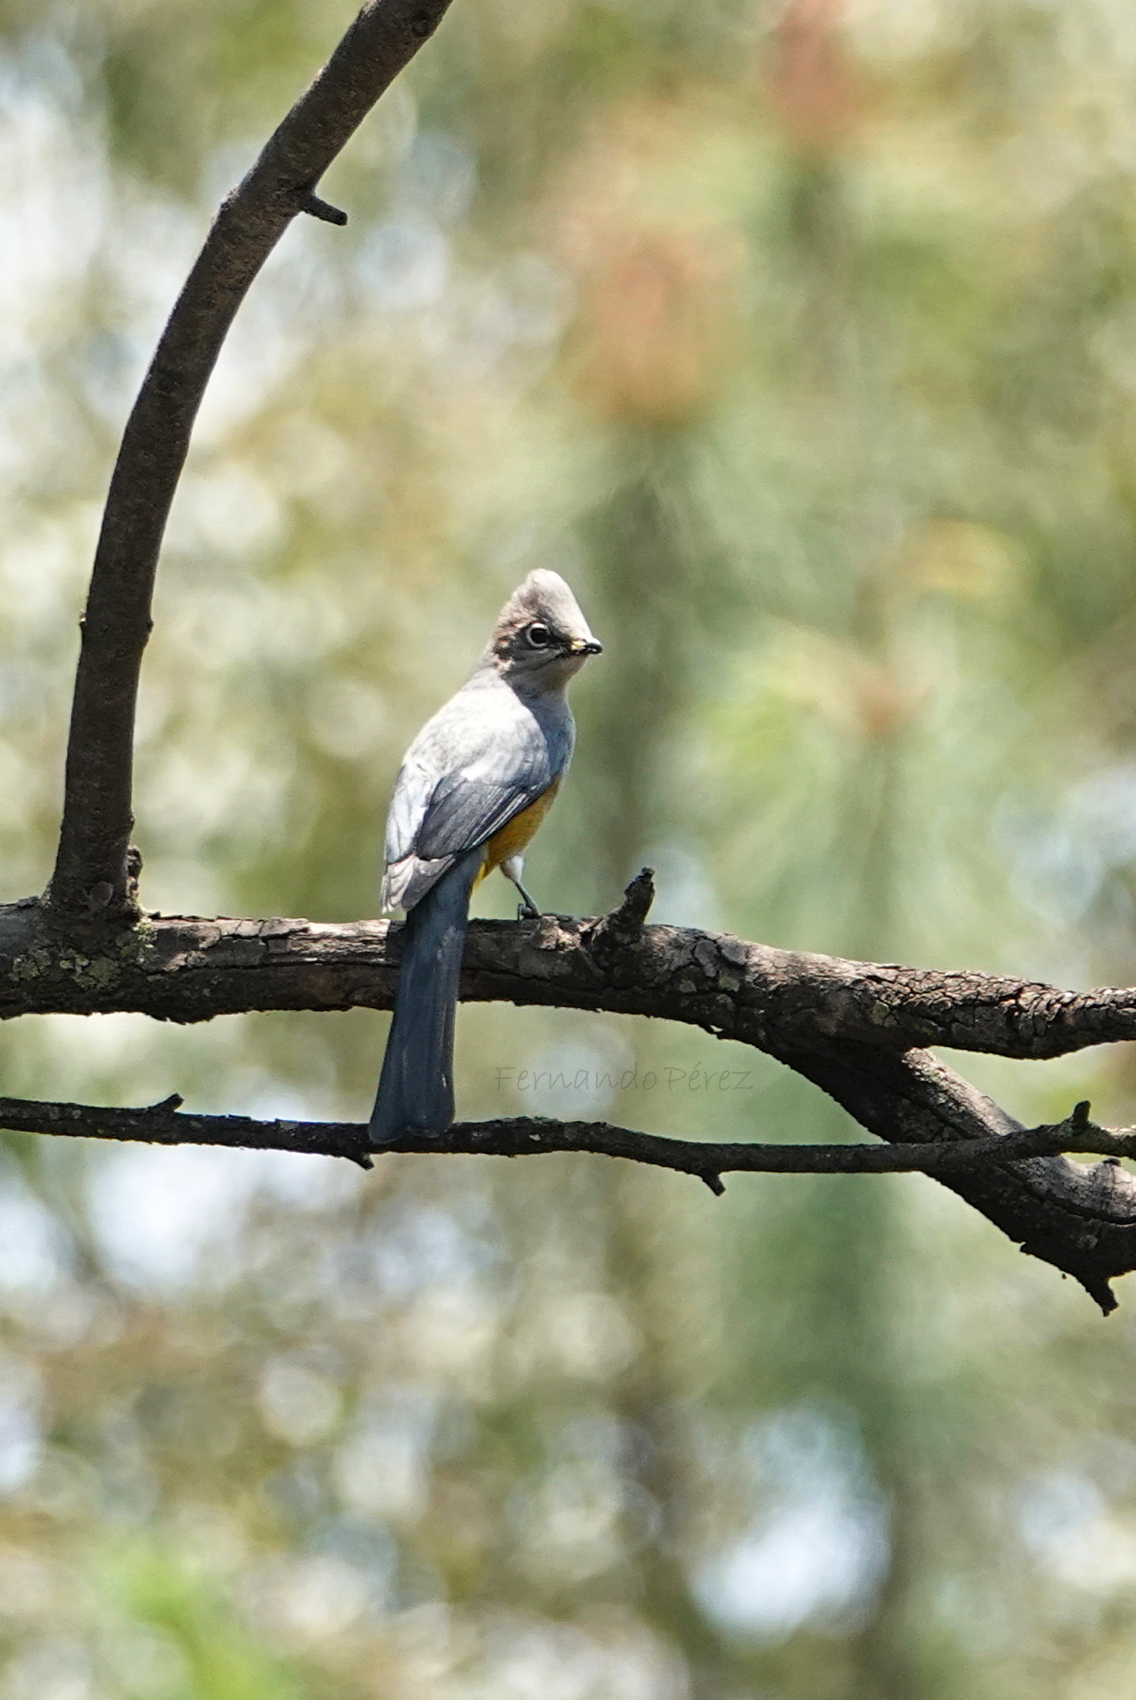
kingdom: Animalia
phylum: Chordata
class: Aves
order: Passeriformes
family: Ptilogonatidae
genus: Ptilogonys
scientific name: Ptilogonys cinereus
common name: Gray silky-flycatcher
